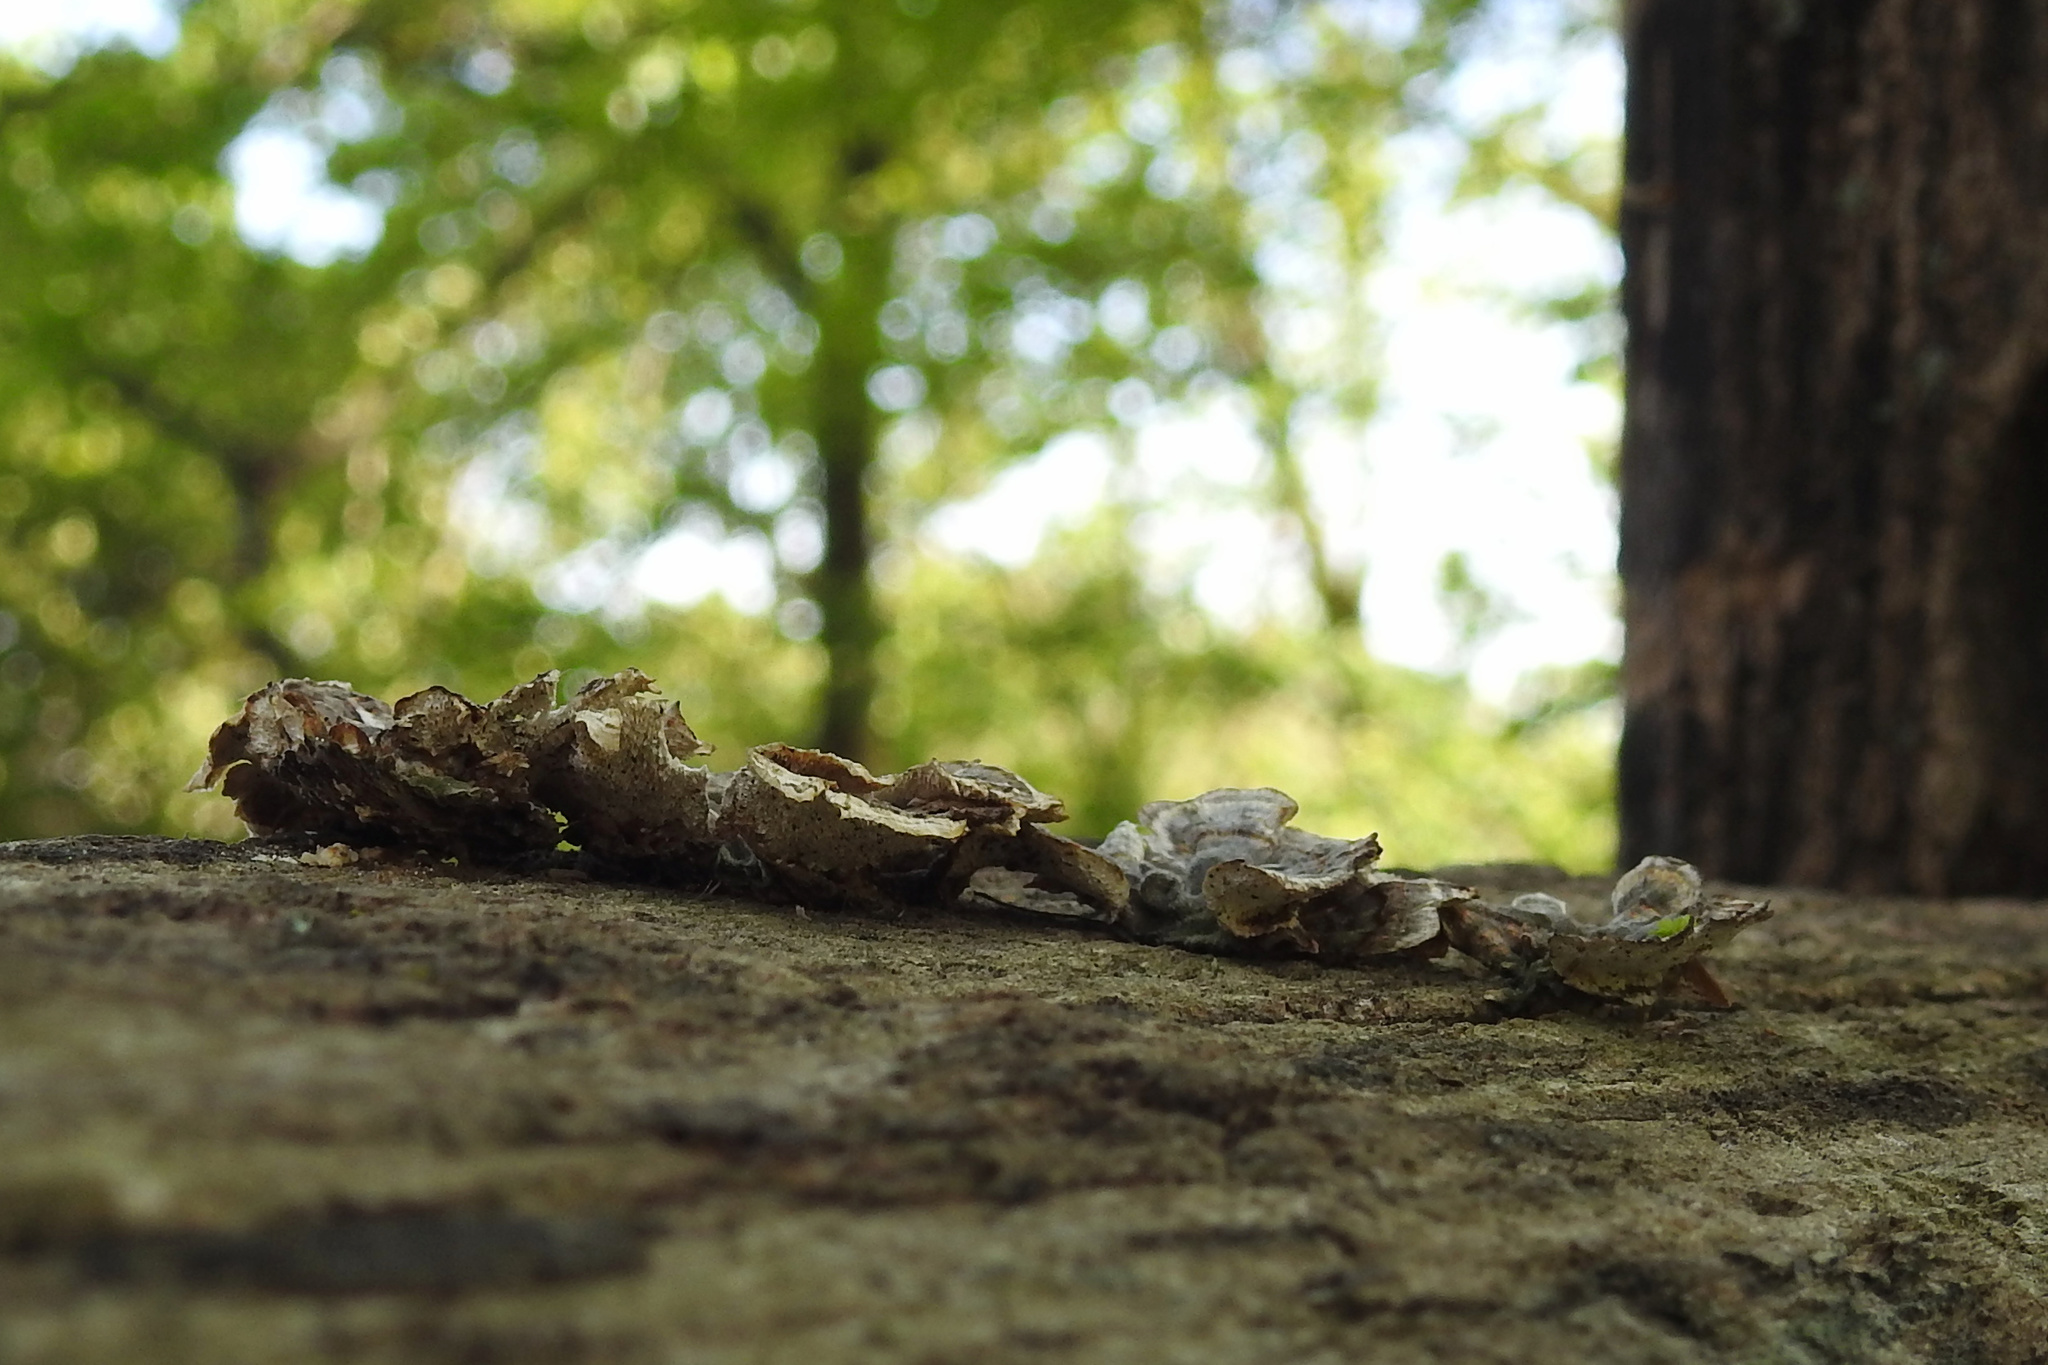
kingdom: Fungi
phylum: Basidiomycota
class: Agaricomycetes
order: Polyporales
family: Polyporaceae
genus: Trametes
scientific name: Trametes versicolor
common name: Turkeytail
